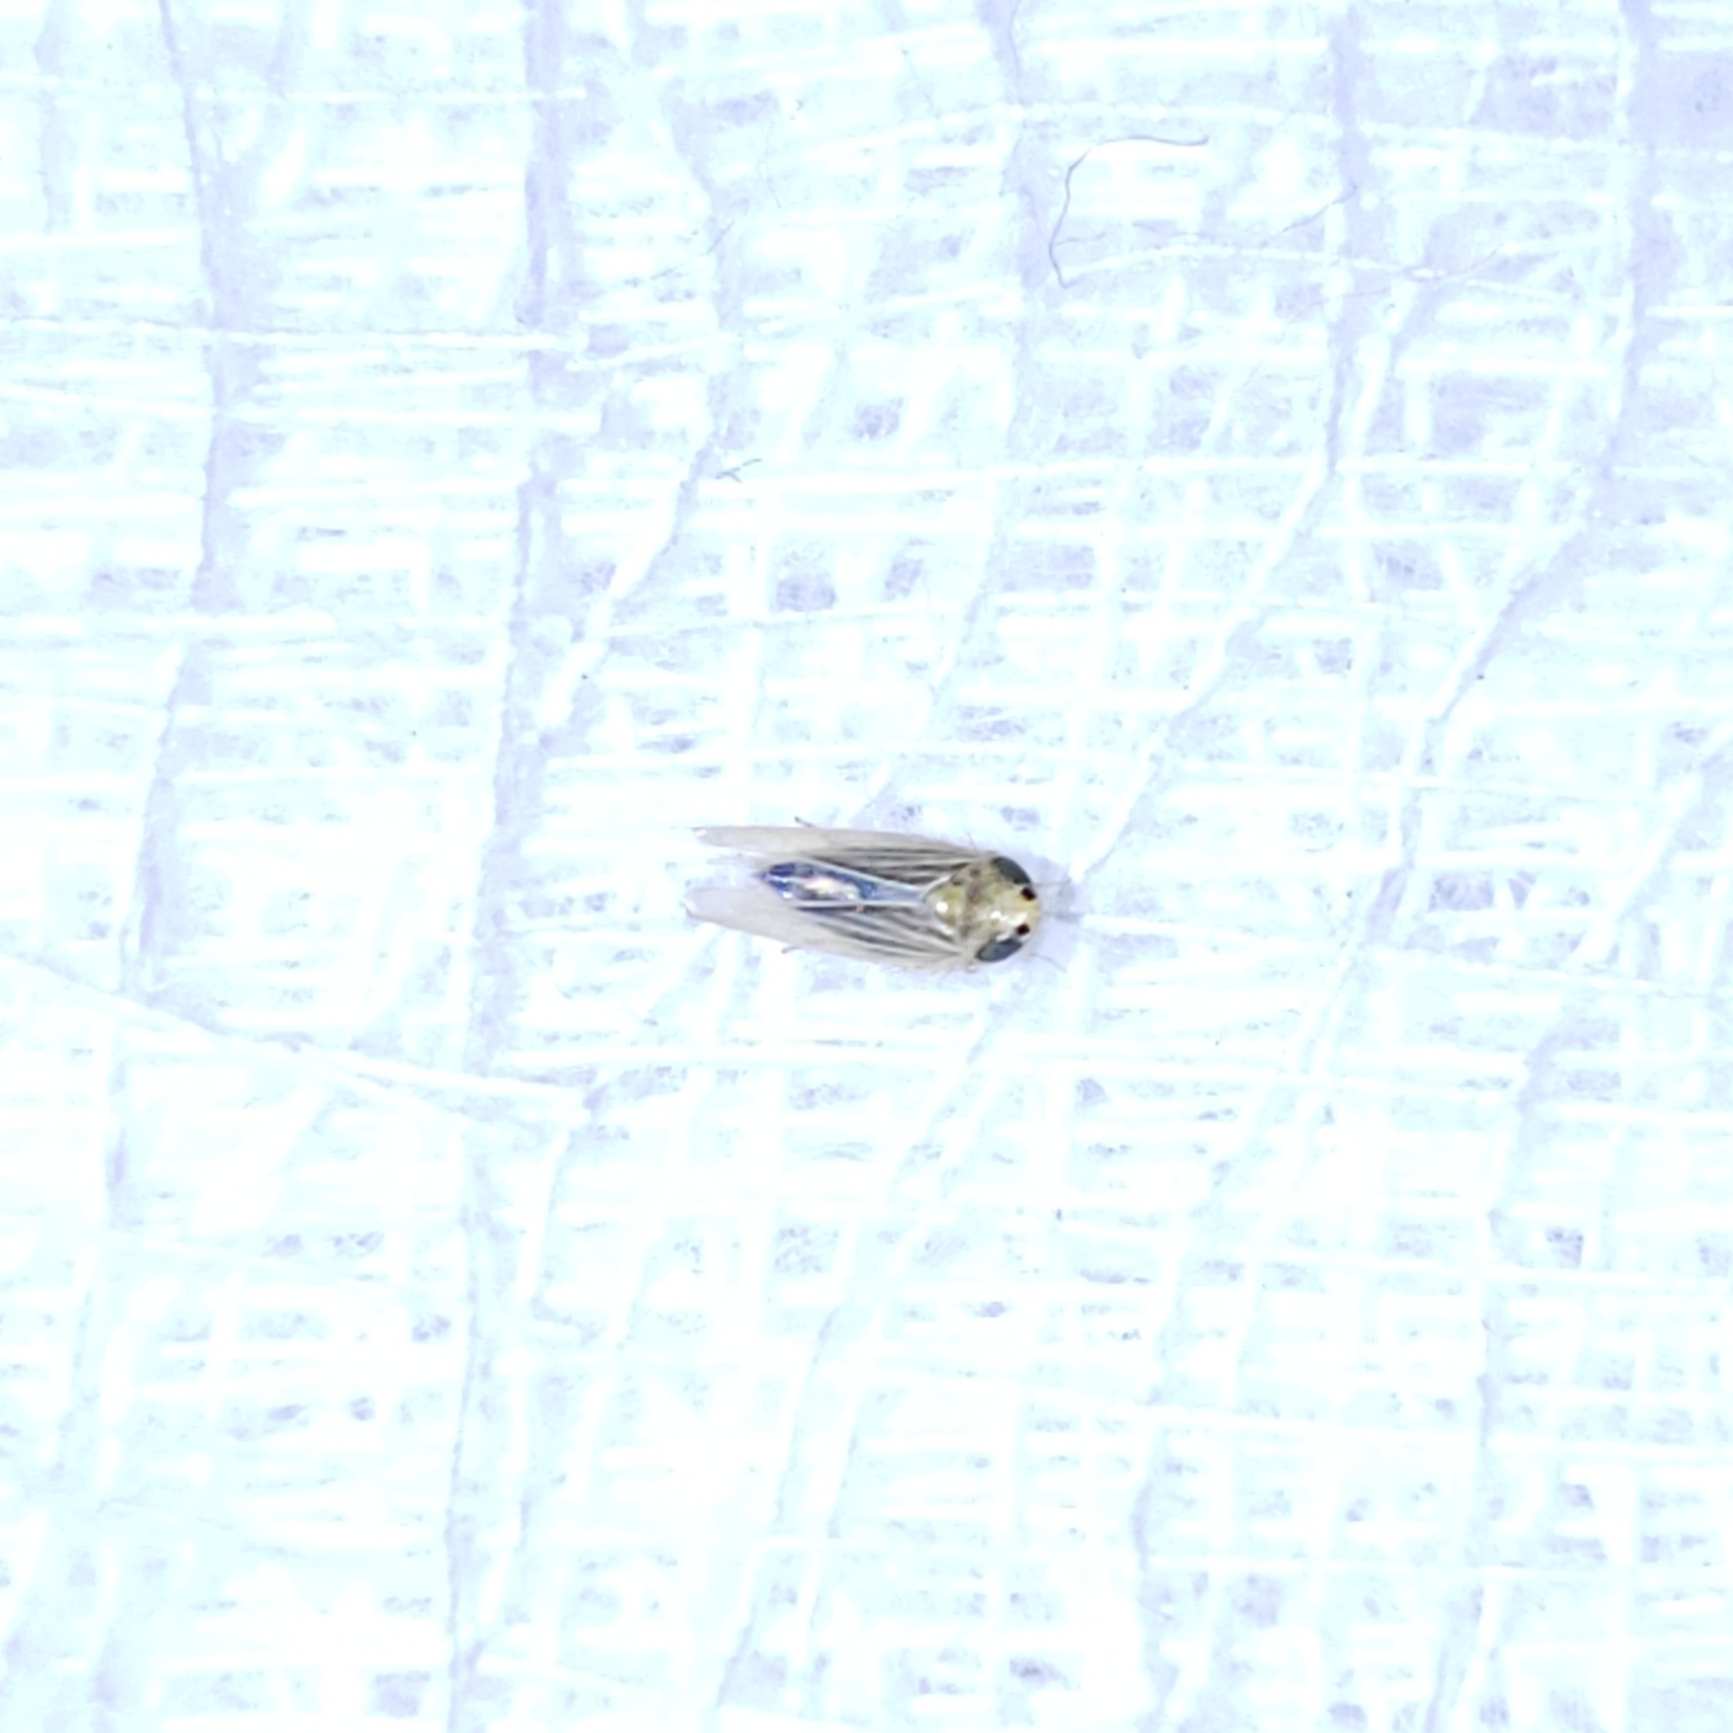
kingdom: Animalia
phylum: Arthropoda
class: Insecta
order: Hemiptera
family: Cicadellidae
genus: Graminella
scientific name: Graminella cognita
